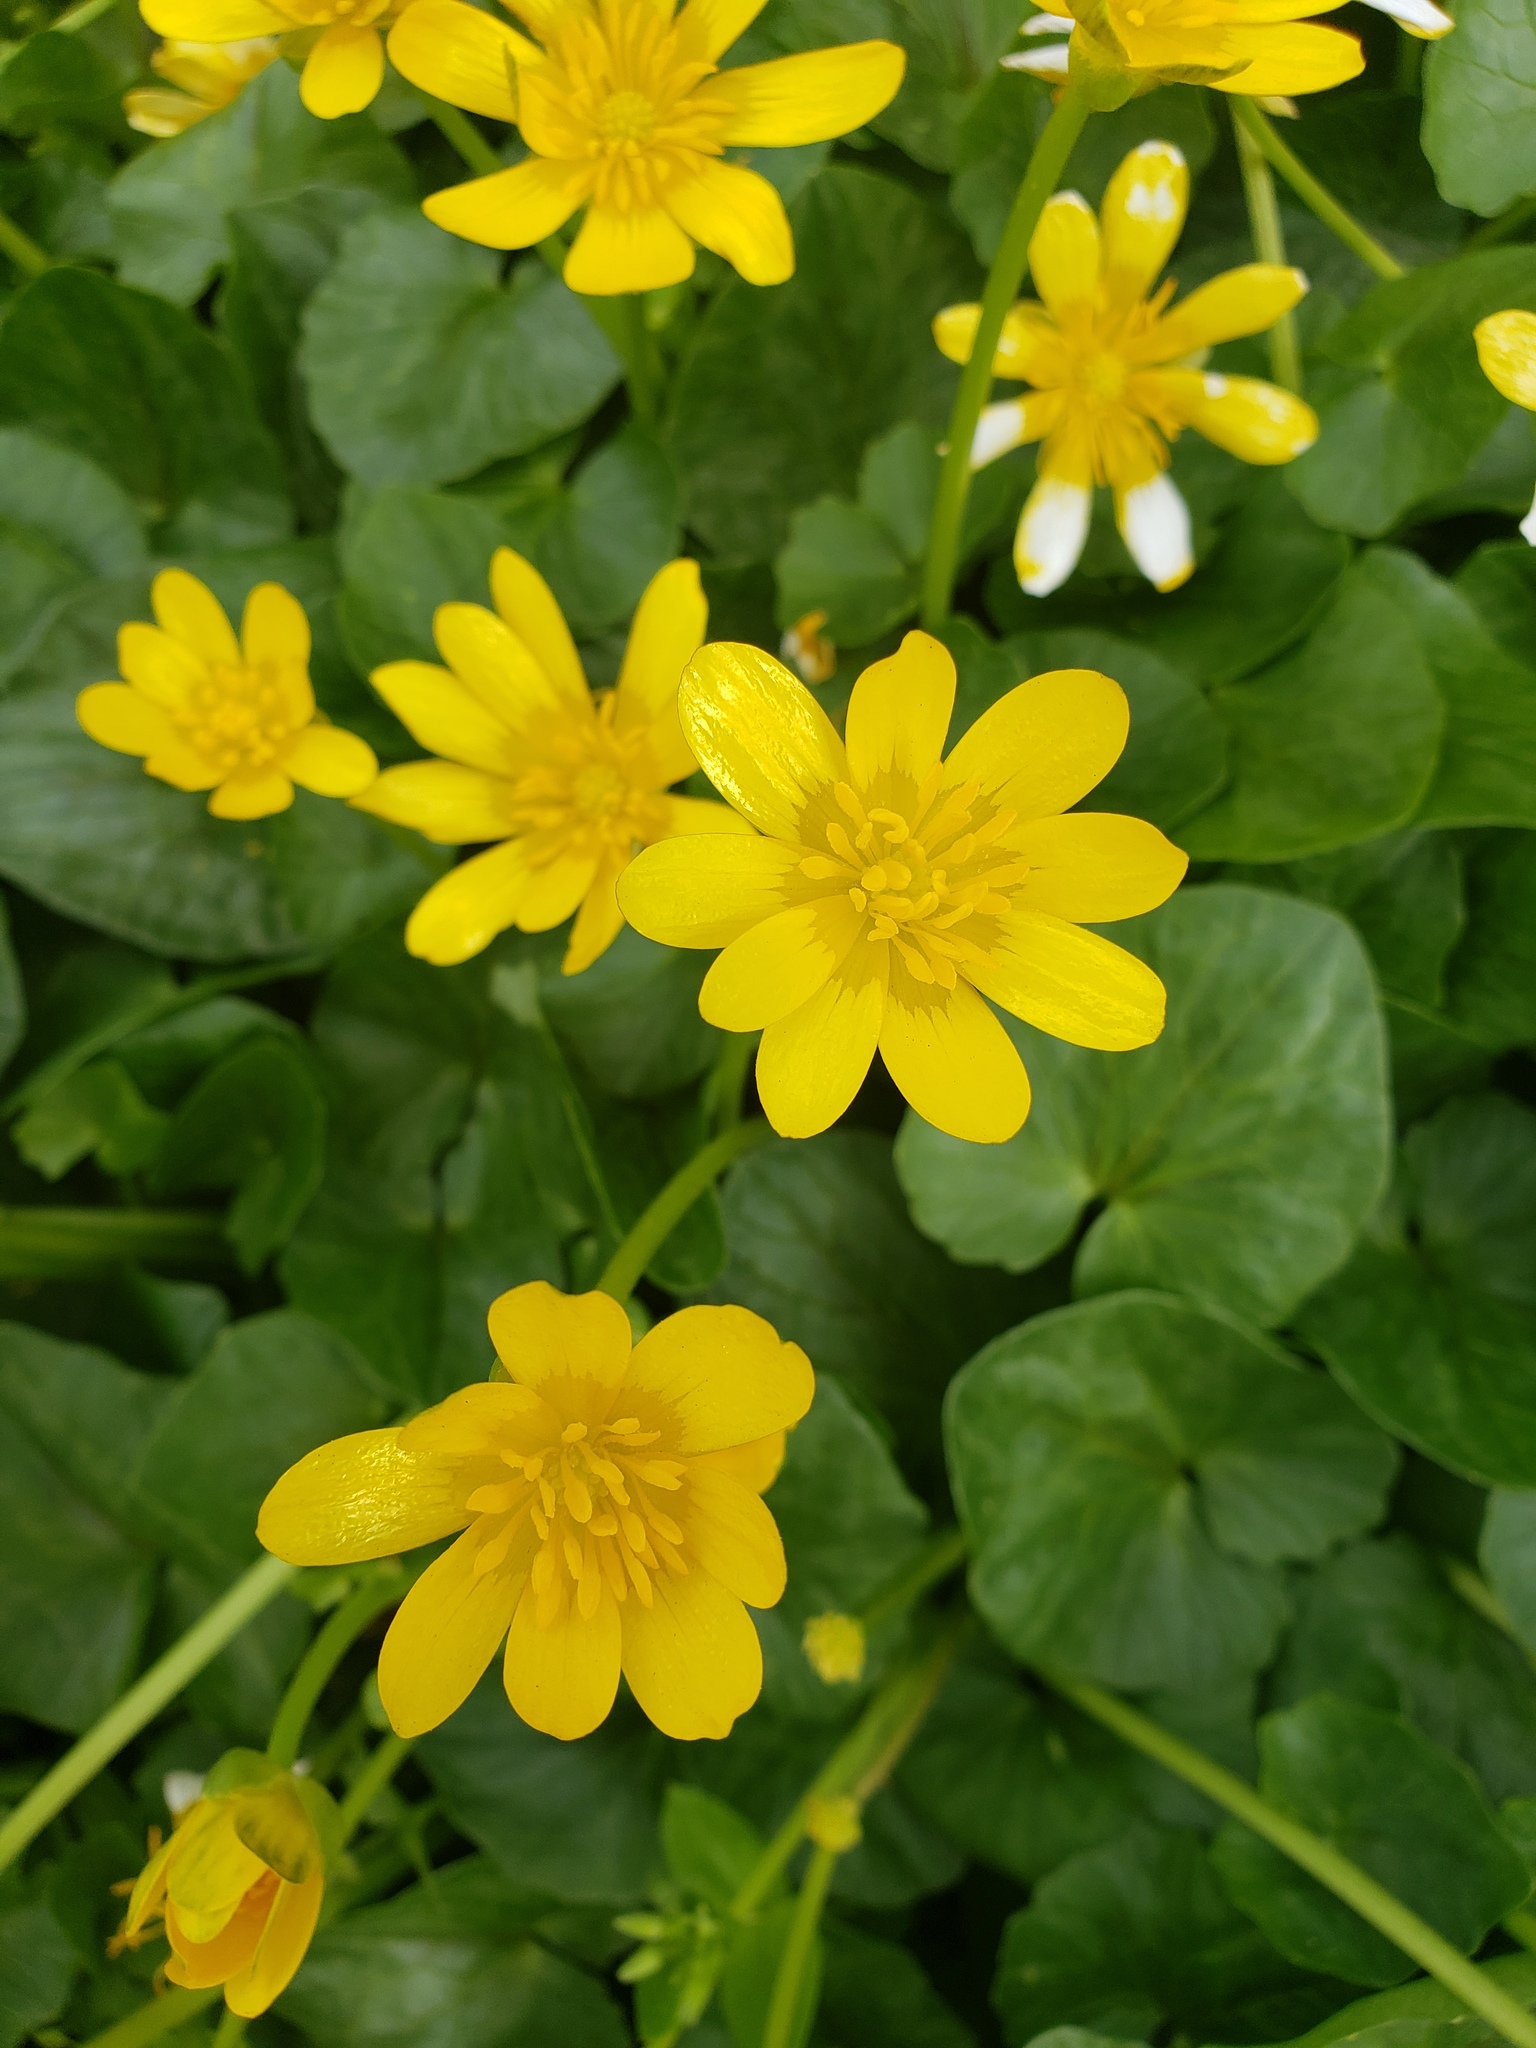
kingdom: Plantae
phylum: Tracheophyta
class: Magnoliopsida
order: Ranunculales
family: Ranunculaceae
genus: Ficaria
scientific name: Ficaria verna
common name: Lesser celandine
